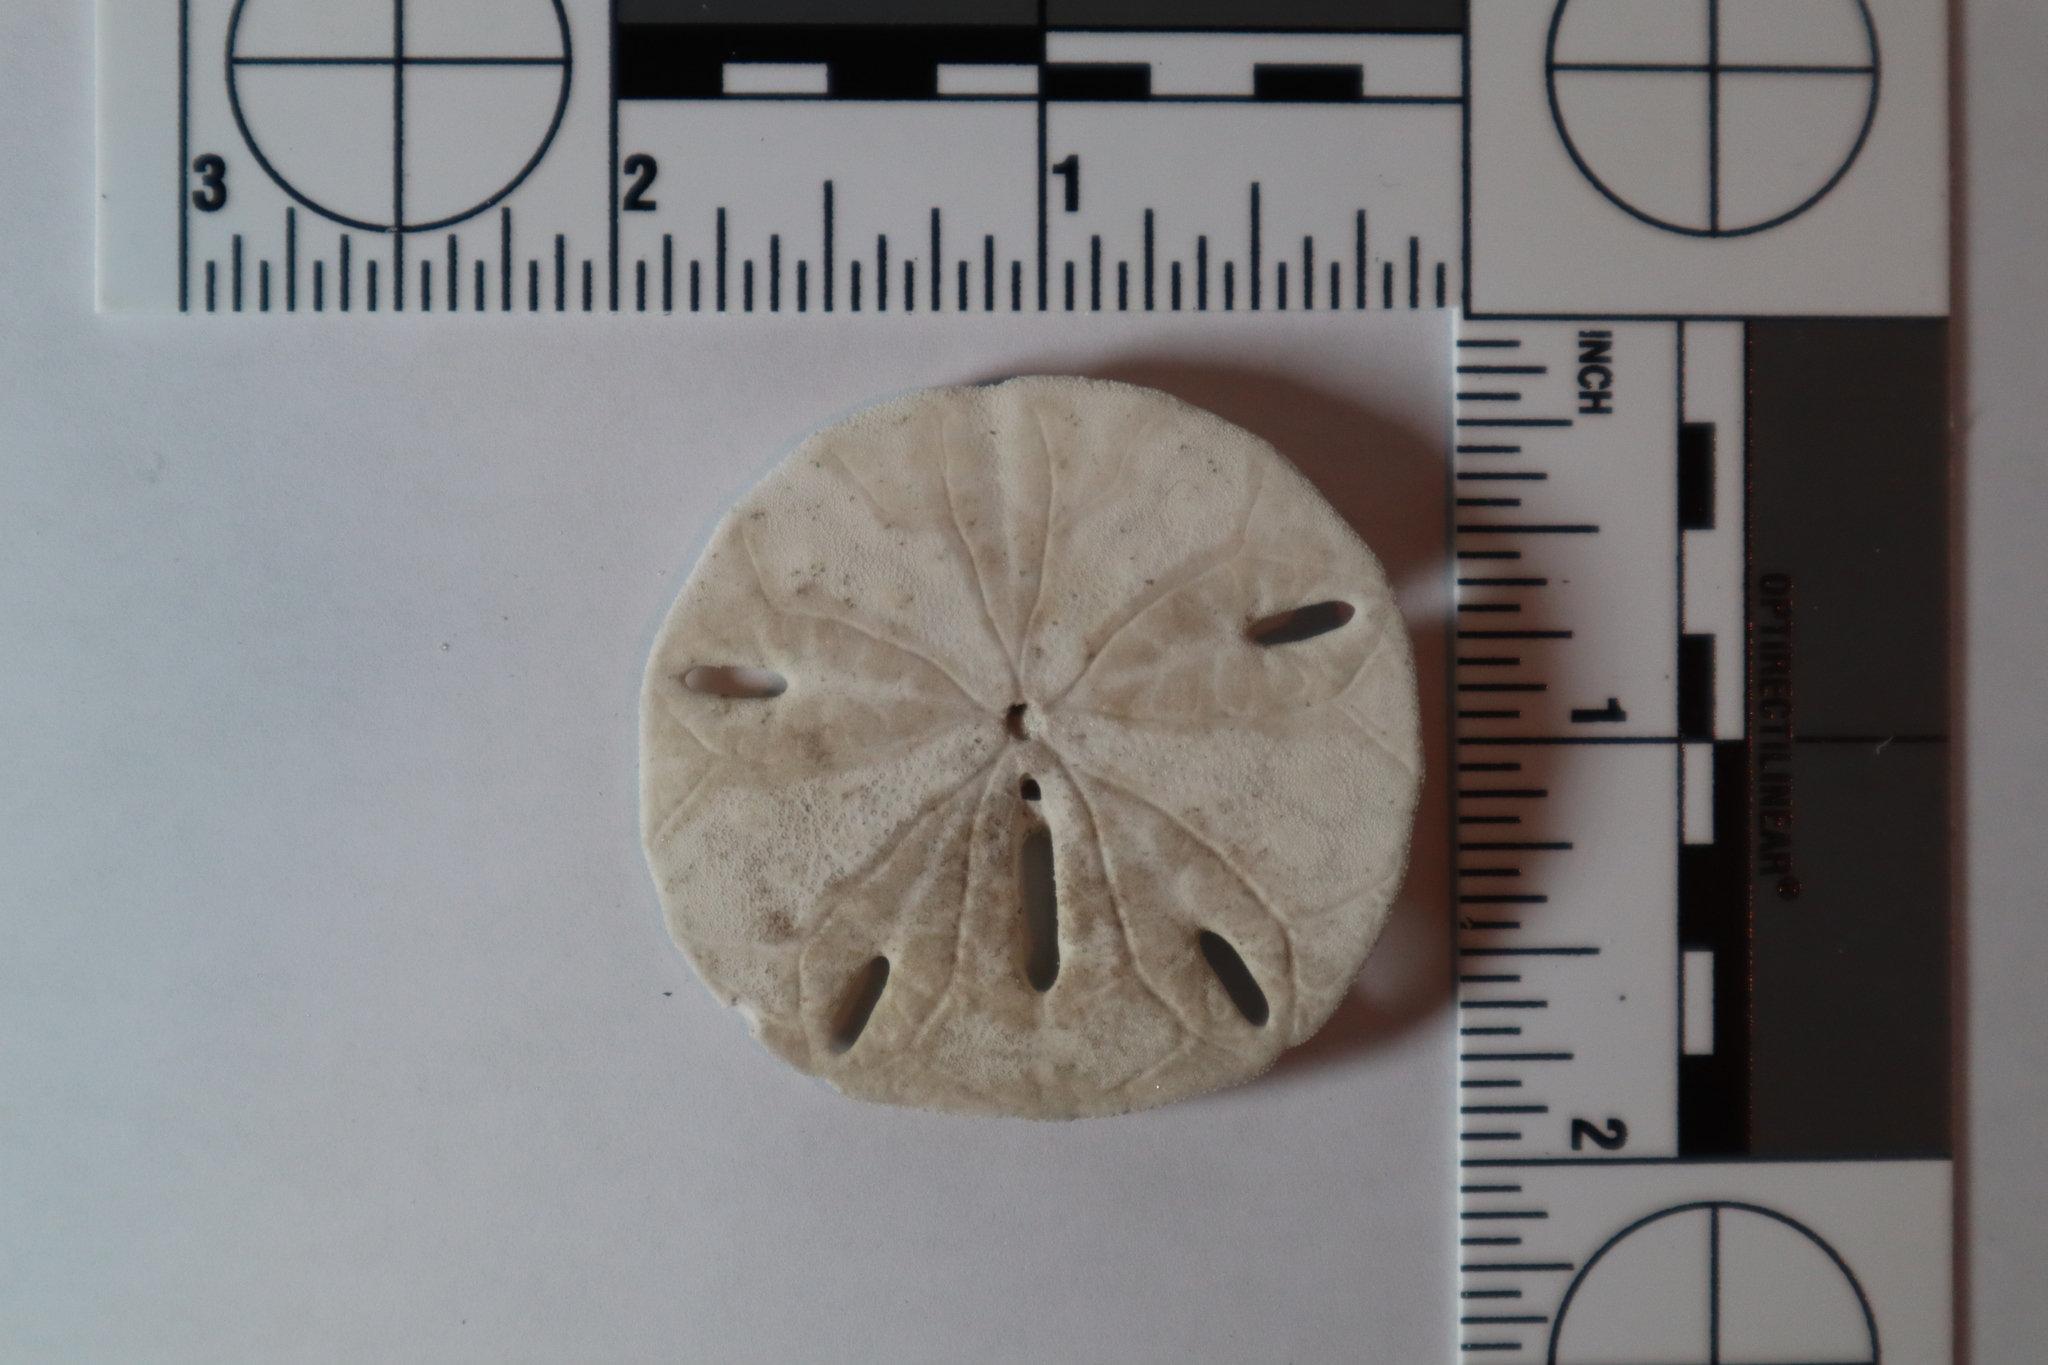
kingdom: Animalia
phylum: Echinodermata
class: Echinoidea
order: Echinolampadacea
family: Mellitidae
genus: Mellita
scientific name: Mellita quinquiesperforata
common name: Sand dollar
